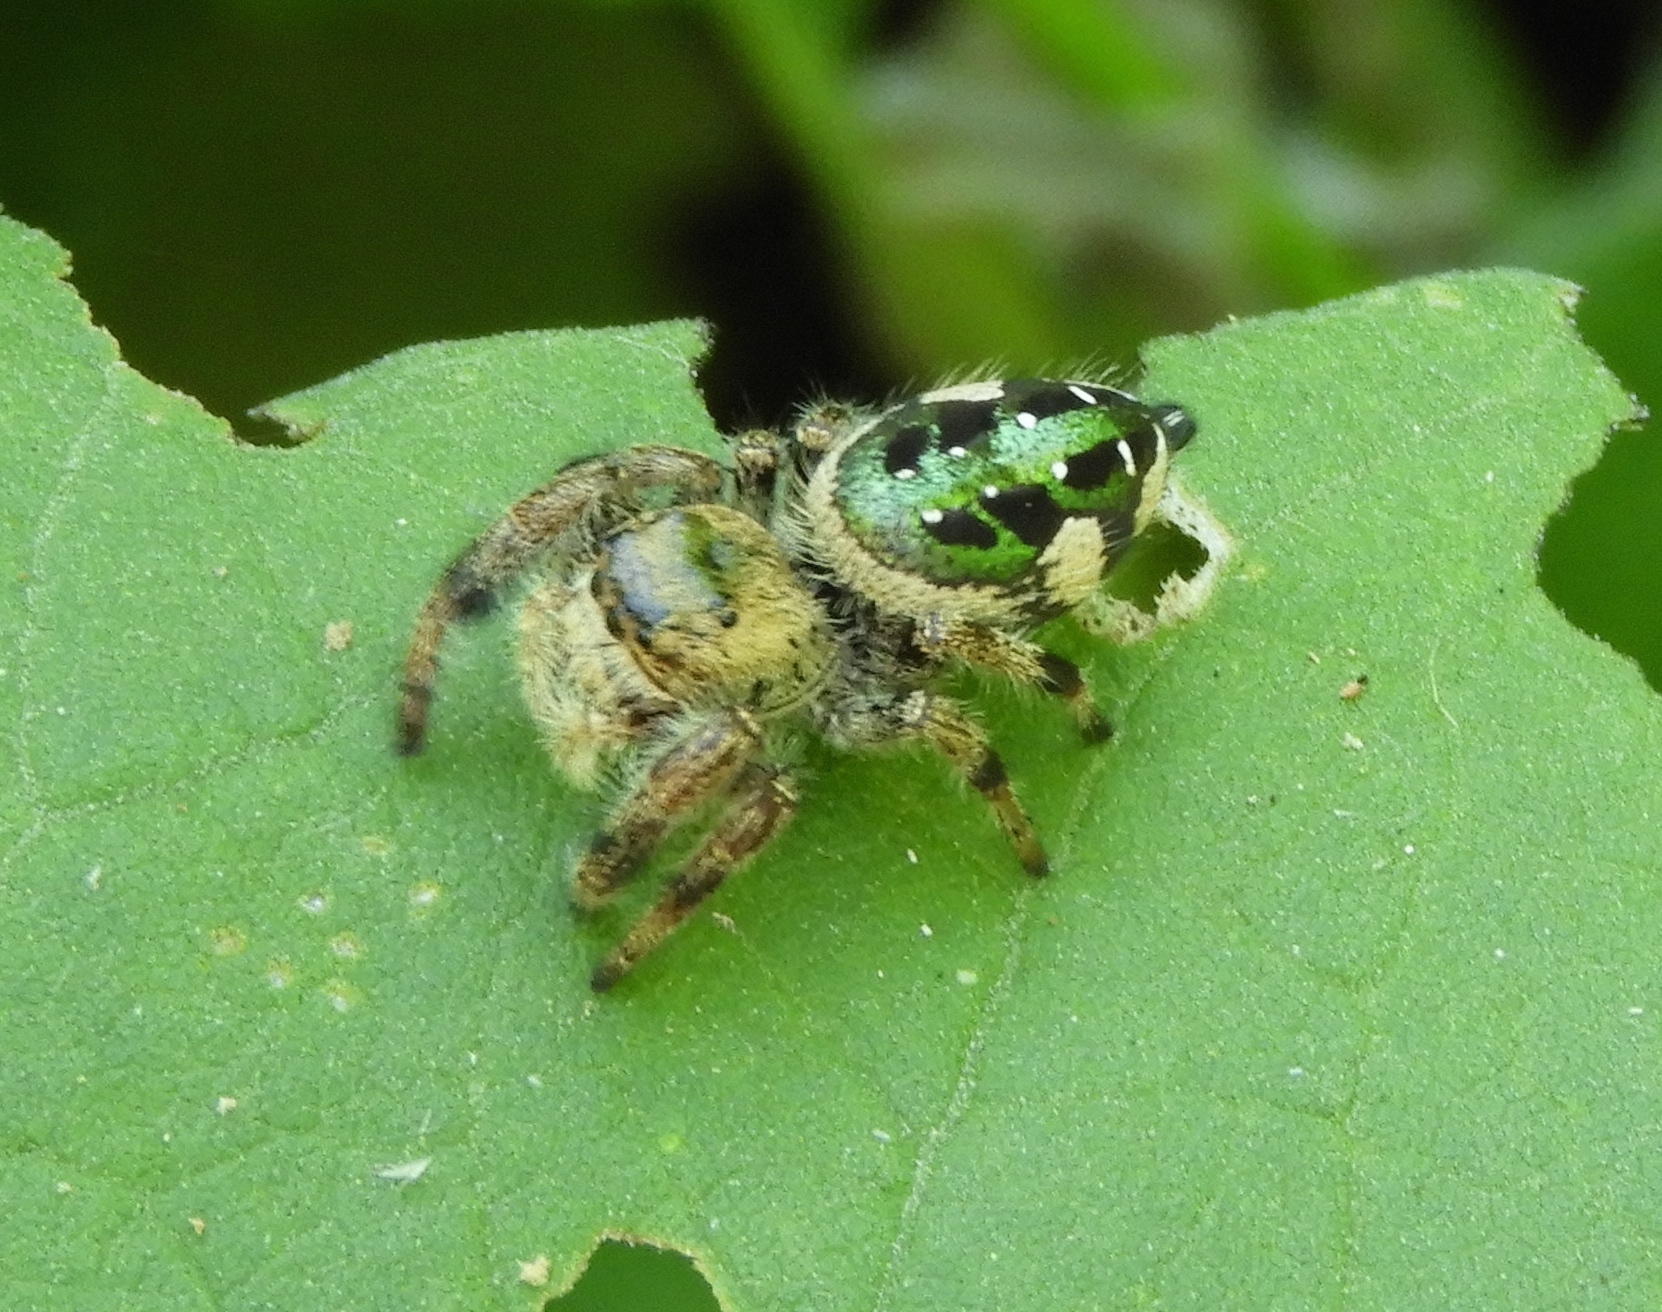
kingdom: Animalia
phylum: Arthropoda
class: Arachnida
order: Araneae
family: Salticidae
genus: Paraphidippus
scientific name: Paraphidippus aurantius
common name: Jumping spiders
